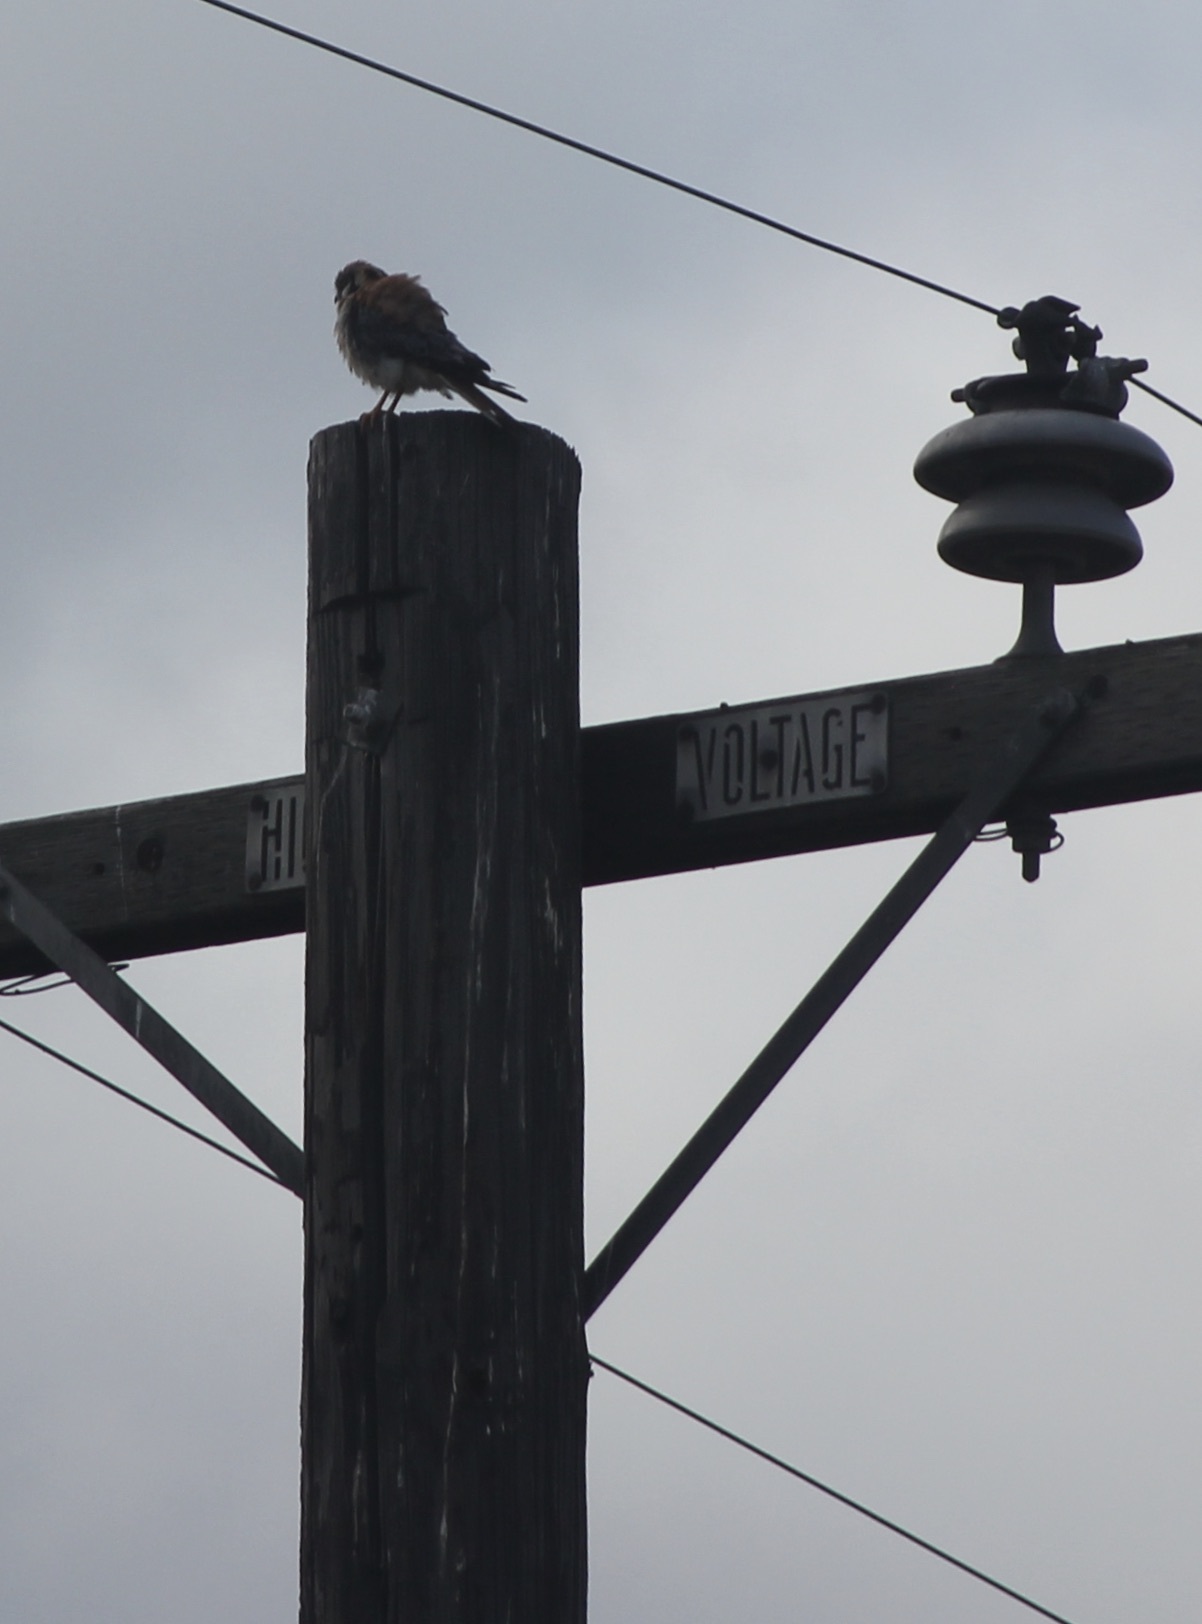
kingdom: Animalia
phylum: Chordata
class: Aves
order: Falconiformes
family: Falconidae
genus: Falco
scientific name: Falco sparverius
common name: American kestrel
